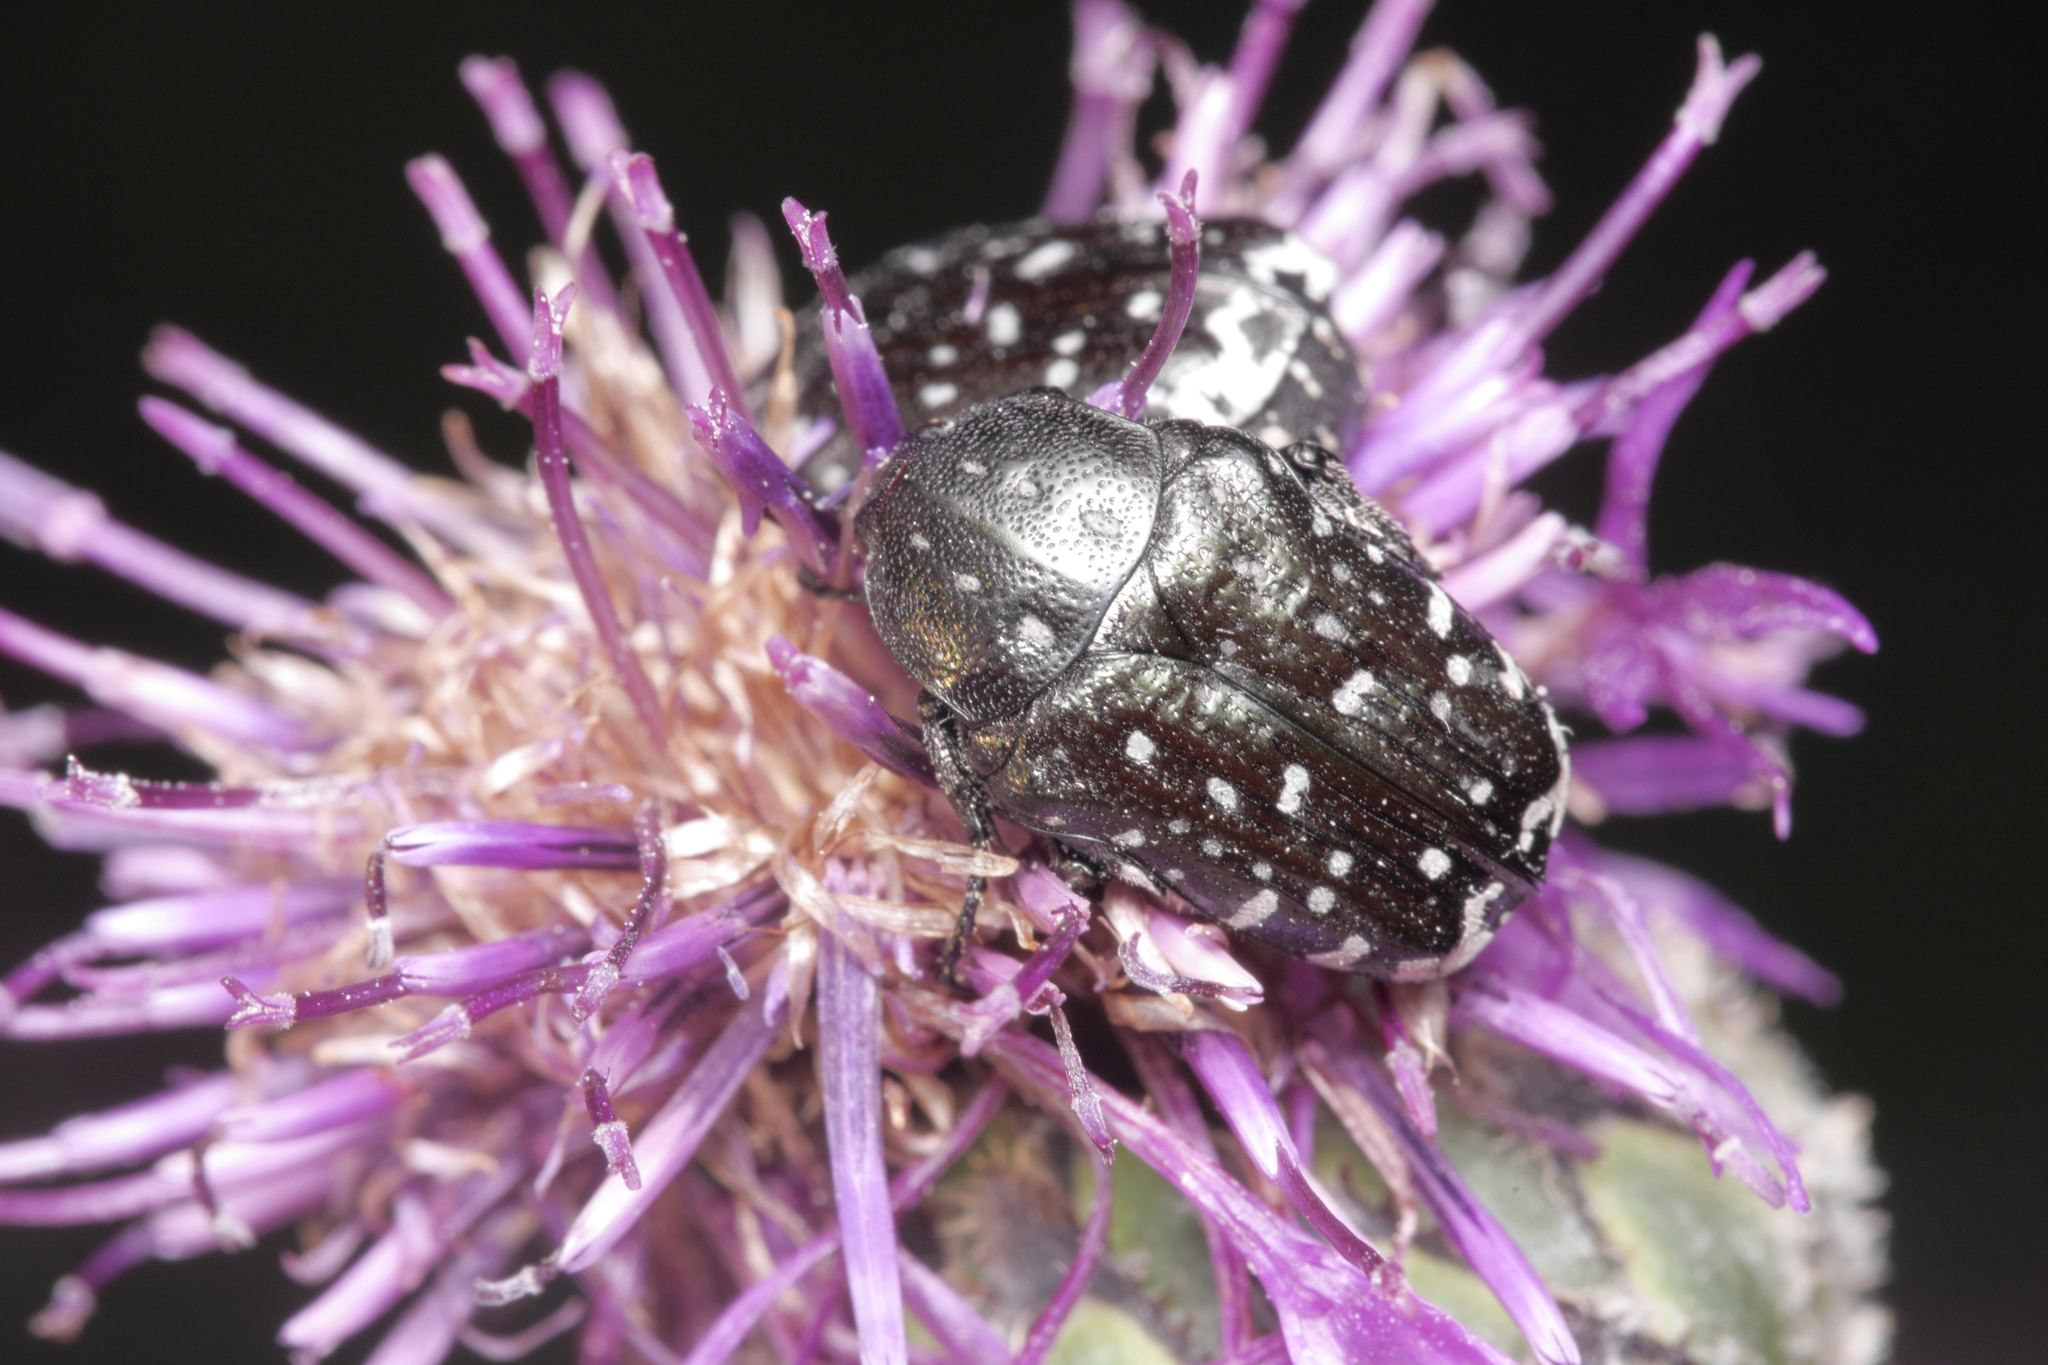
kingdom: Animalia
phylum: Arthropoda
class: Insecta
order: Coleoptera
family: Scarabaeidae
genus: Oxythyrea
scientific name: Oxythyrea funesta
